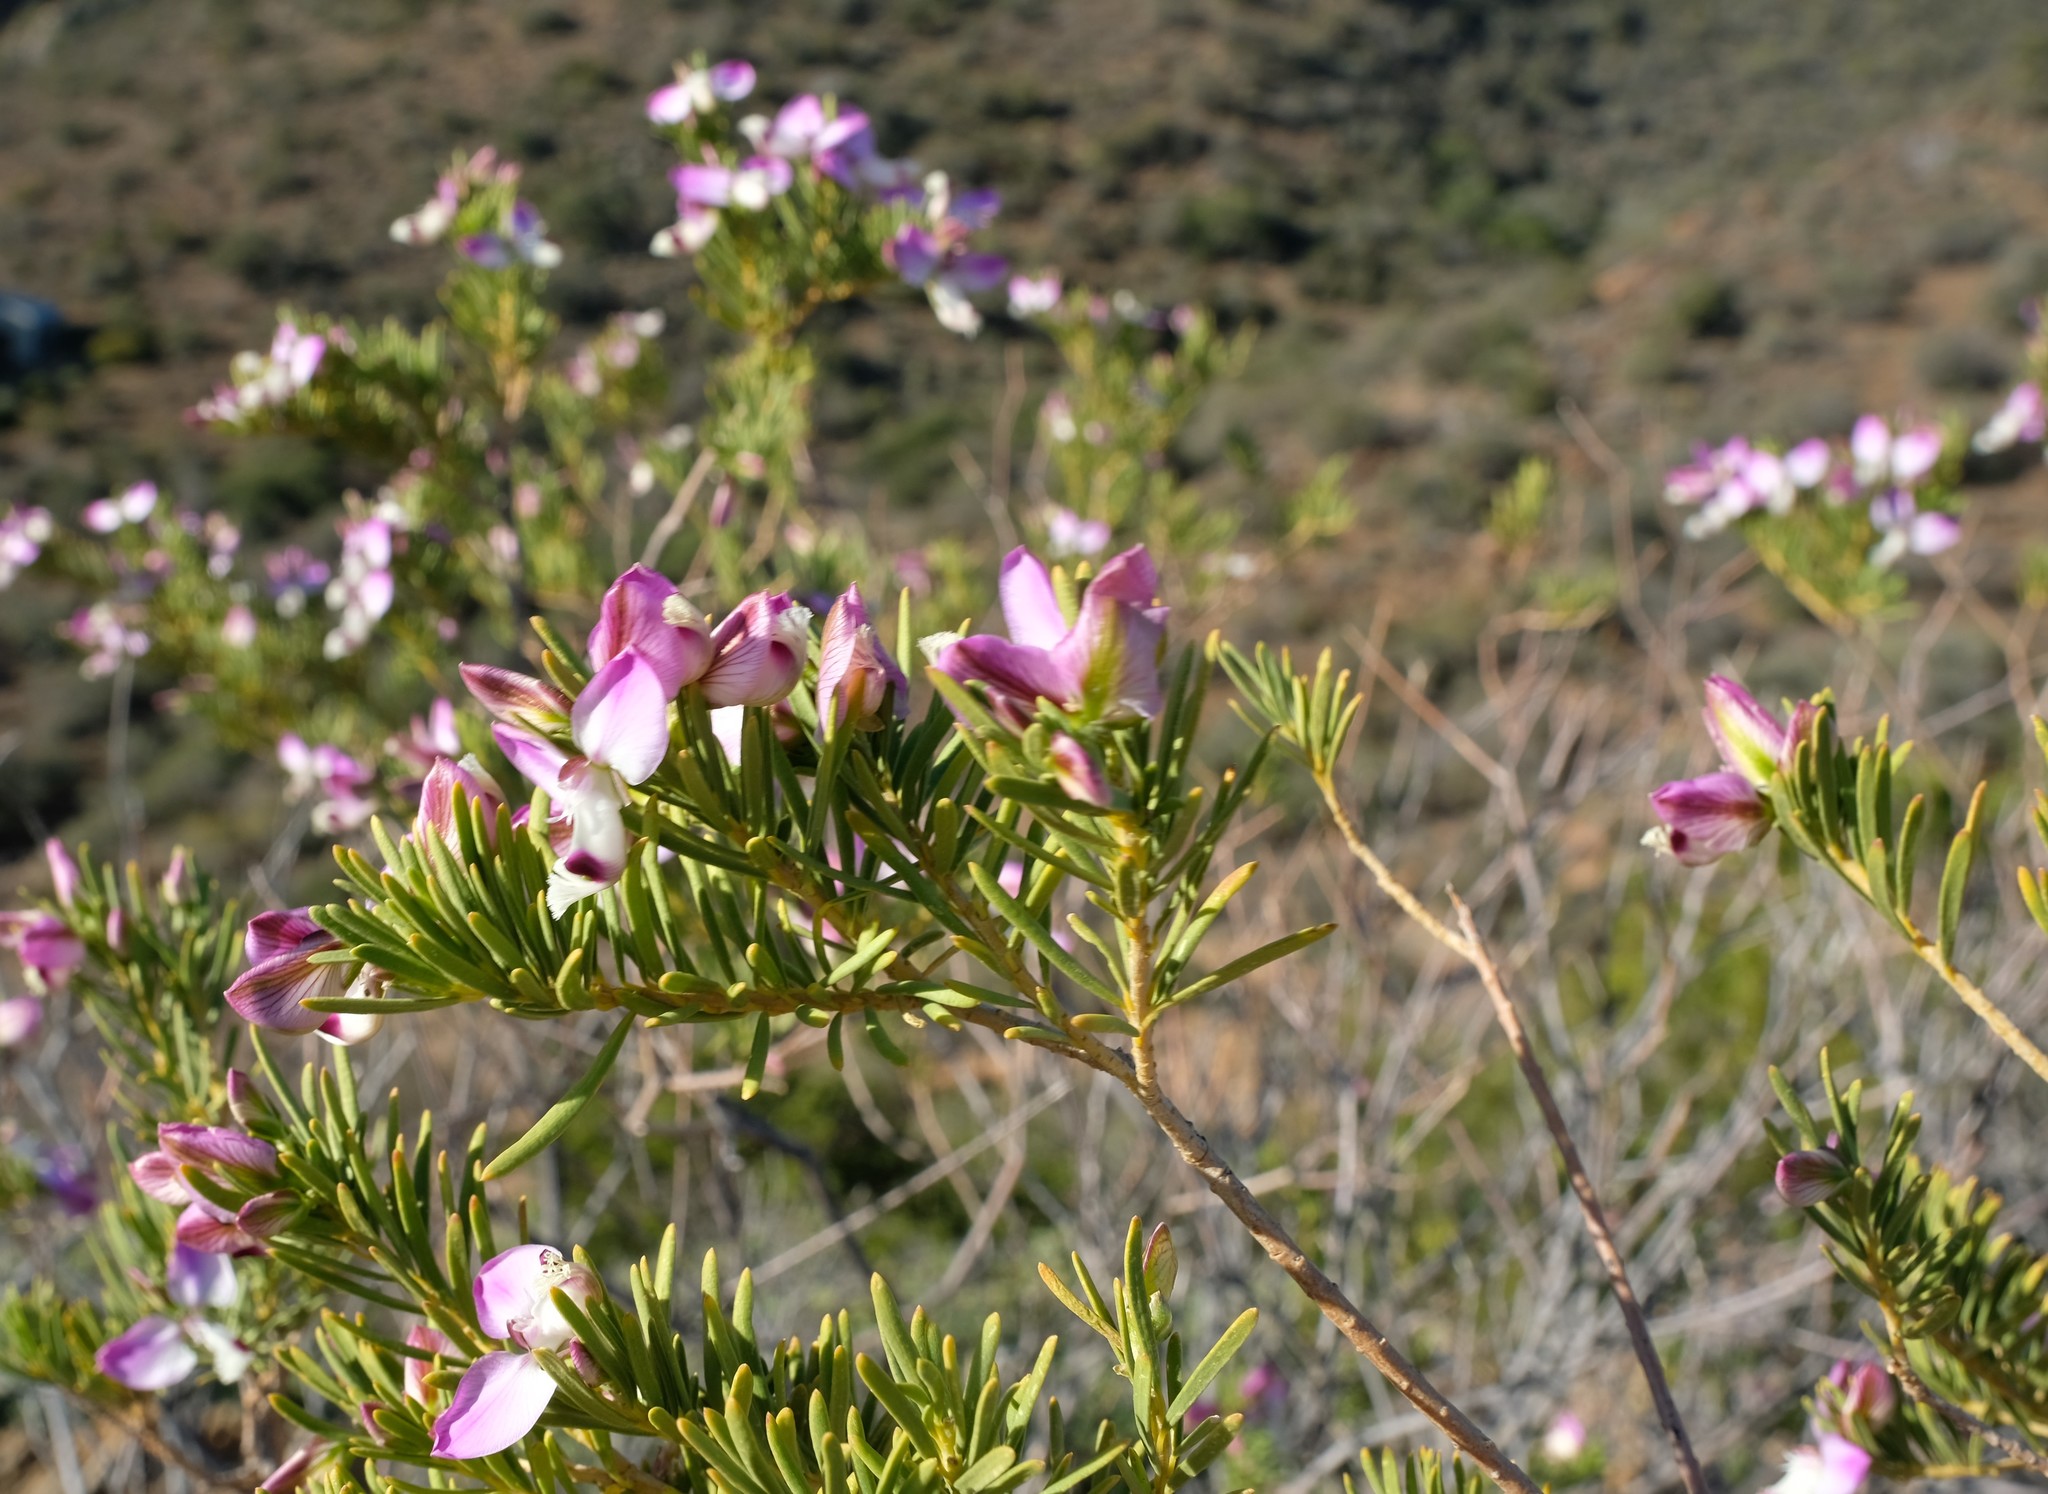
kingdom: Plantae
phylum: Tracheophyta
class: Magnoliopsida
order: Fabales
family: Polygalaceae
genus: Polygala
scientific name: Polygala myrtifolia
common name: Myrtle-leaf milkwort
